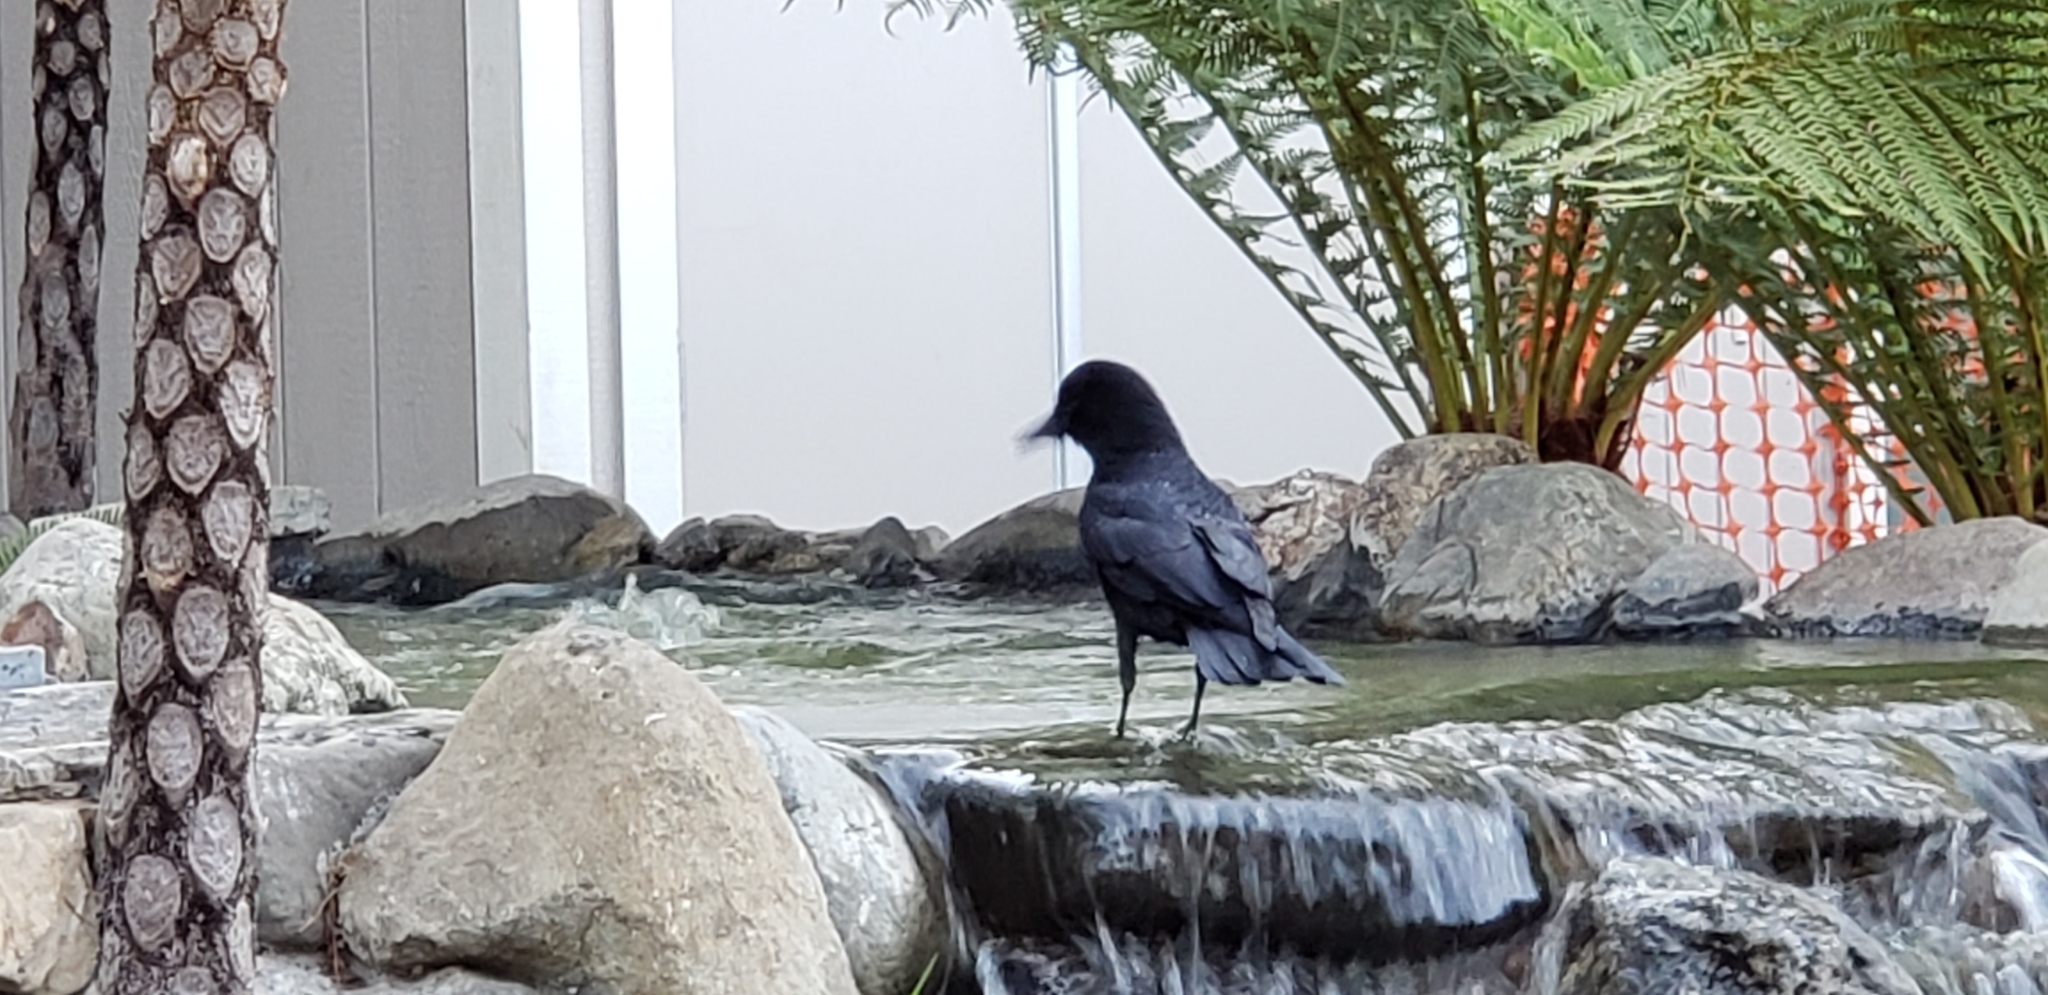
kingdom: Animalia
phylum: Chordata
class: Aves
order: Passeriformes
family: Corvidae
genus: Corvus
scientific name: Corvus brachyrhynchos
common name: American crow
